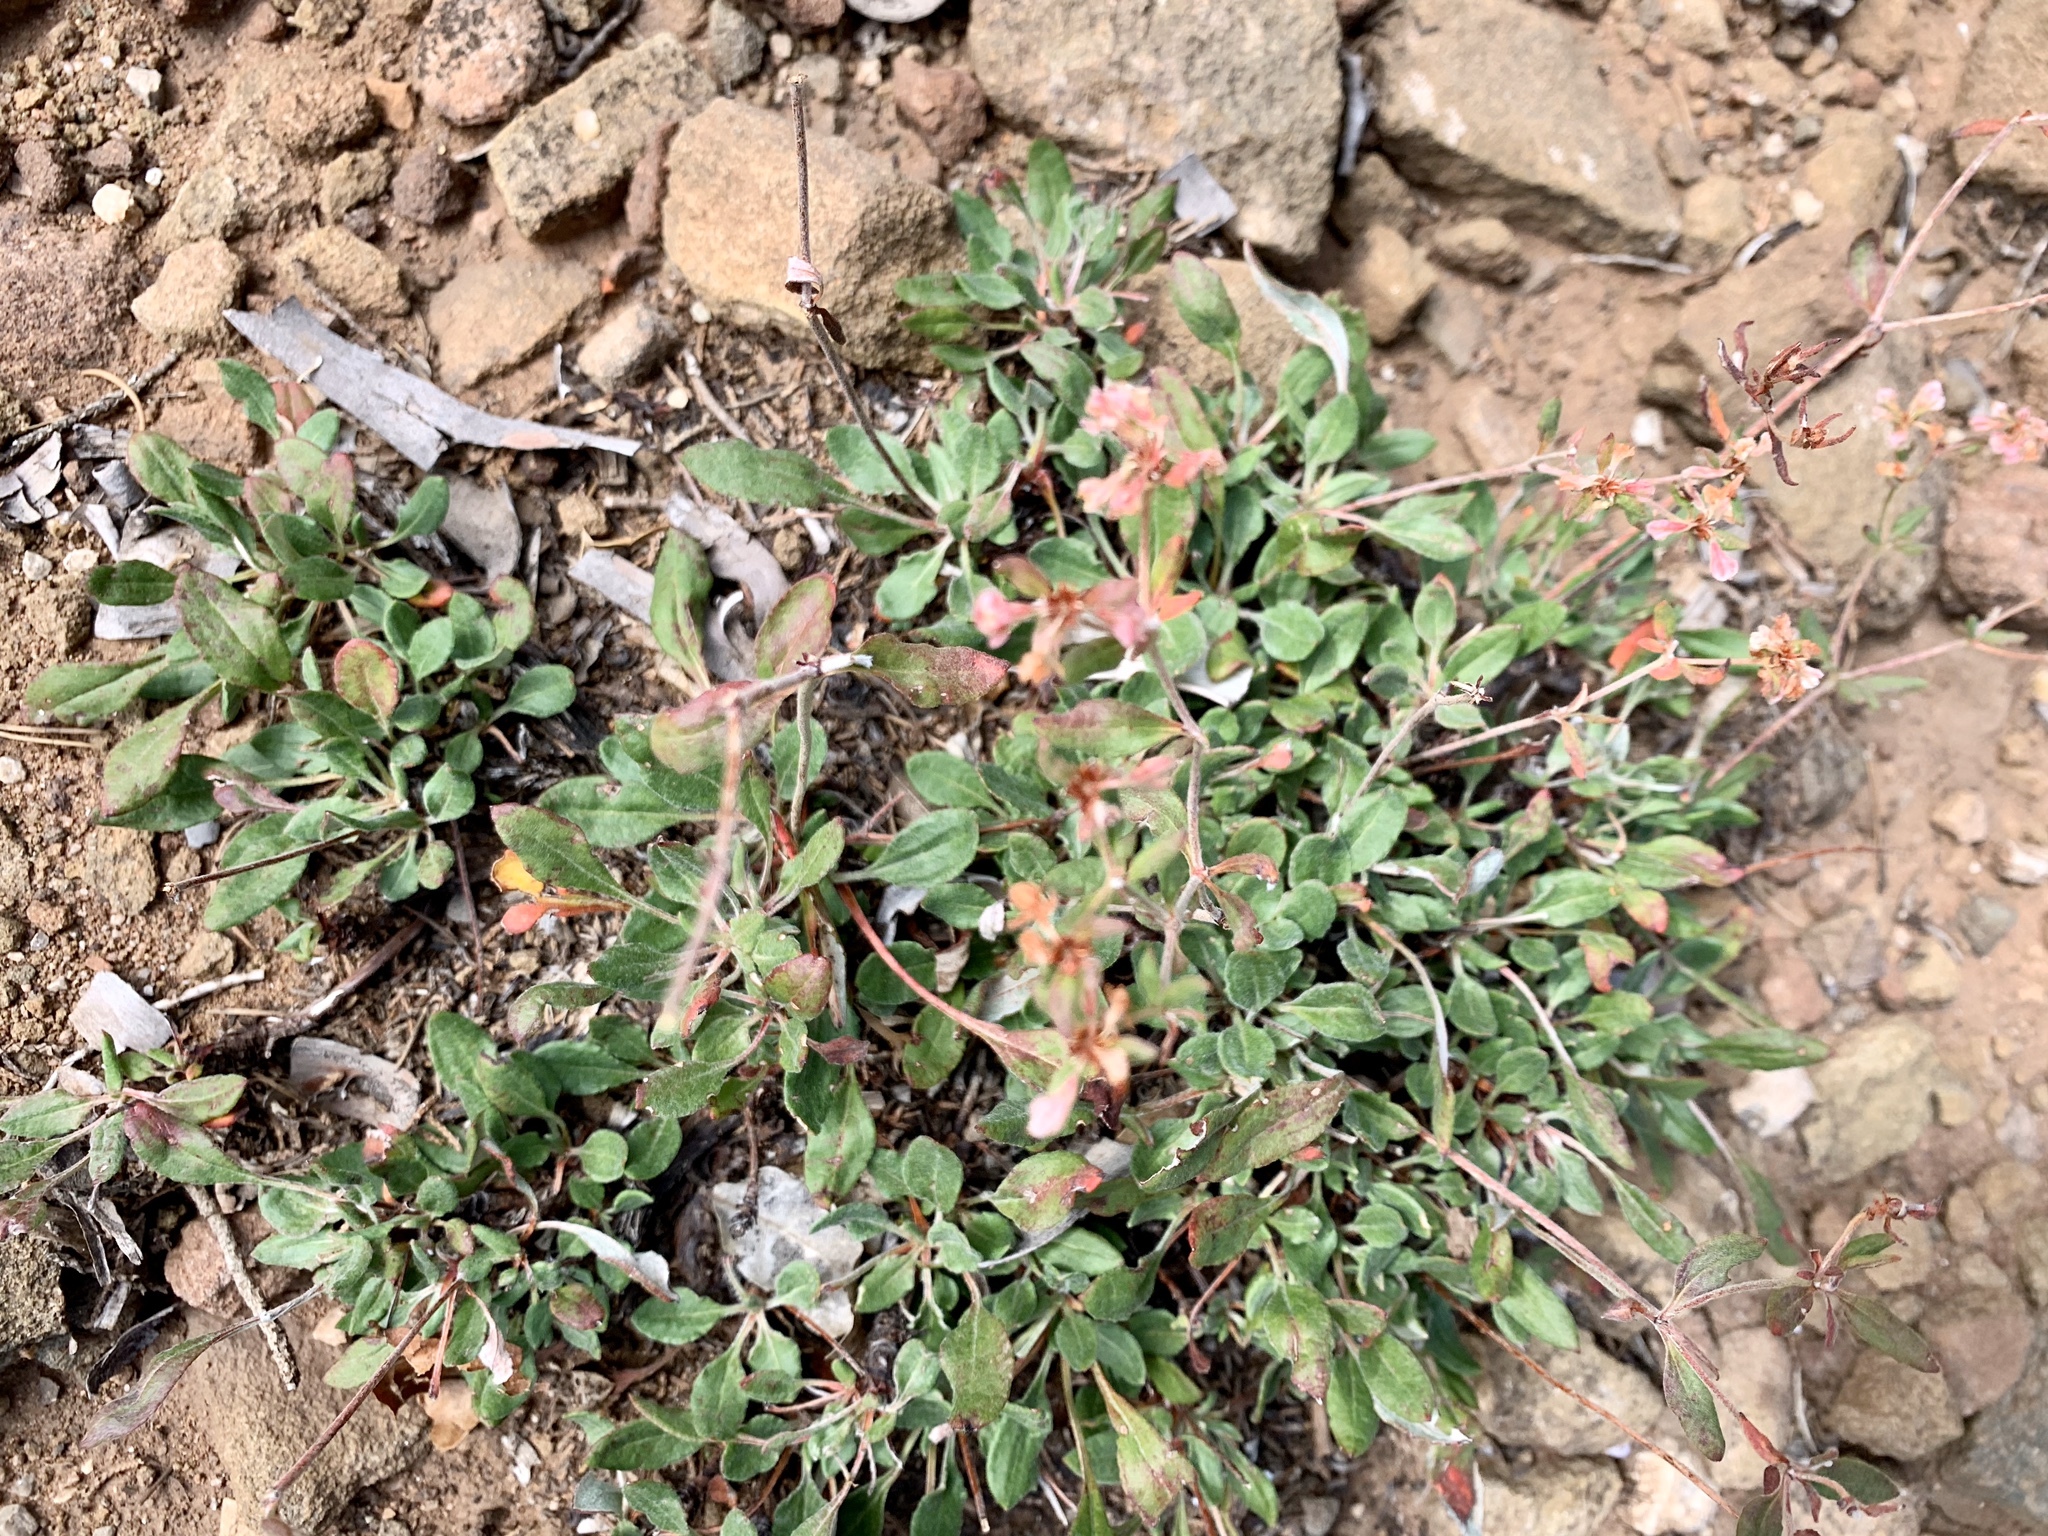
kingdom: Plantae
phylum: Tracheophyta
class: Magnoliopsida
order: Caryophyllales
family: Polygonaceae
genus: Eriogonum
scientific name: Eriogonum wootonii
